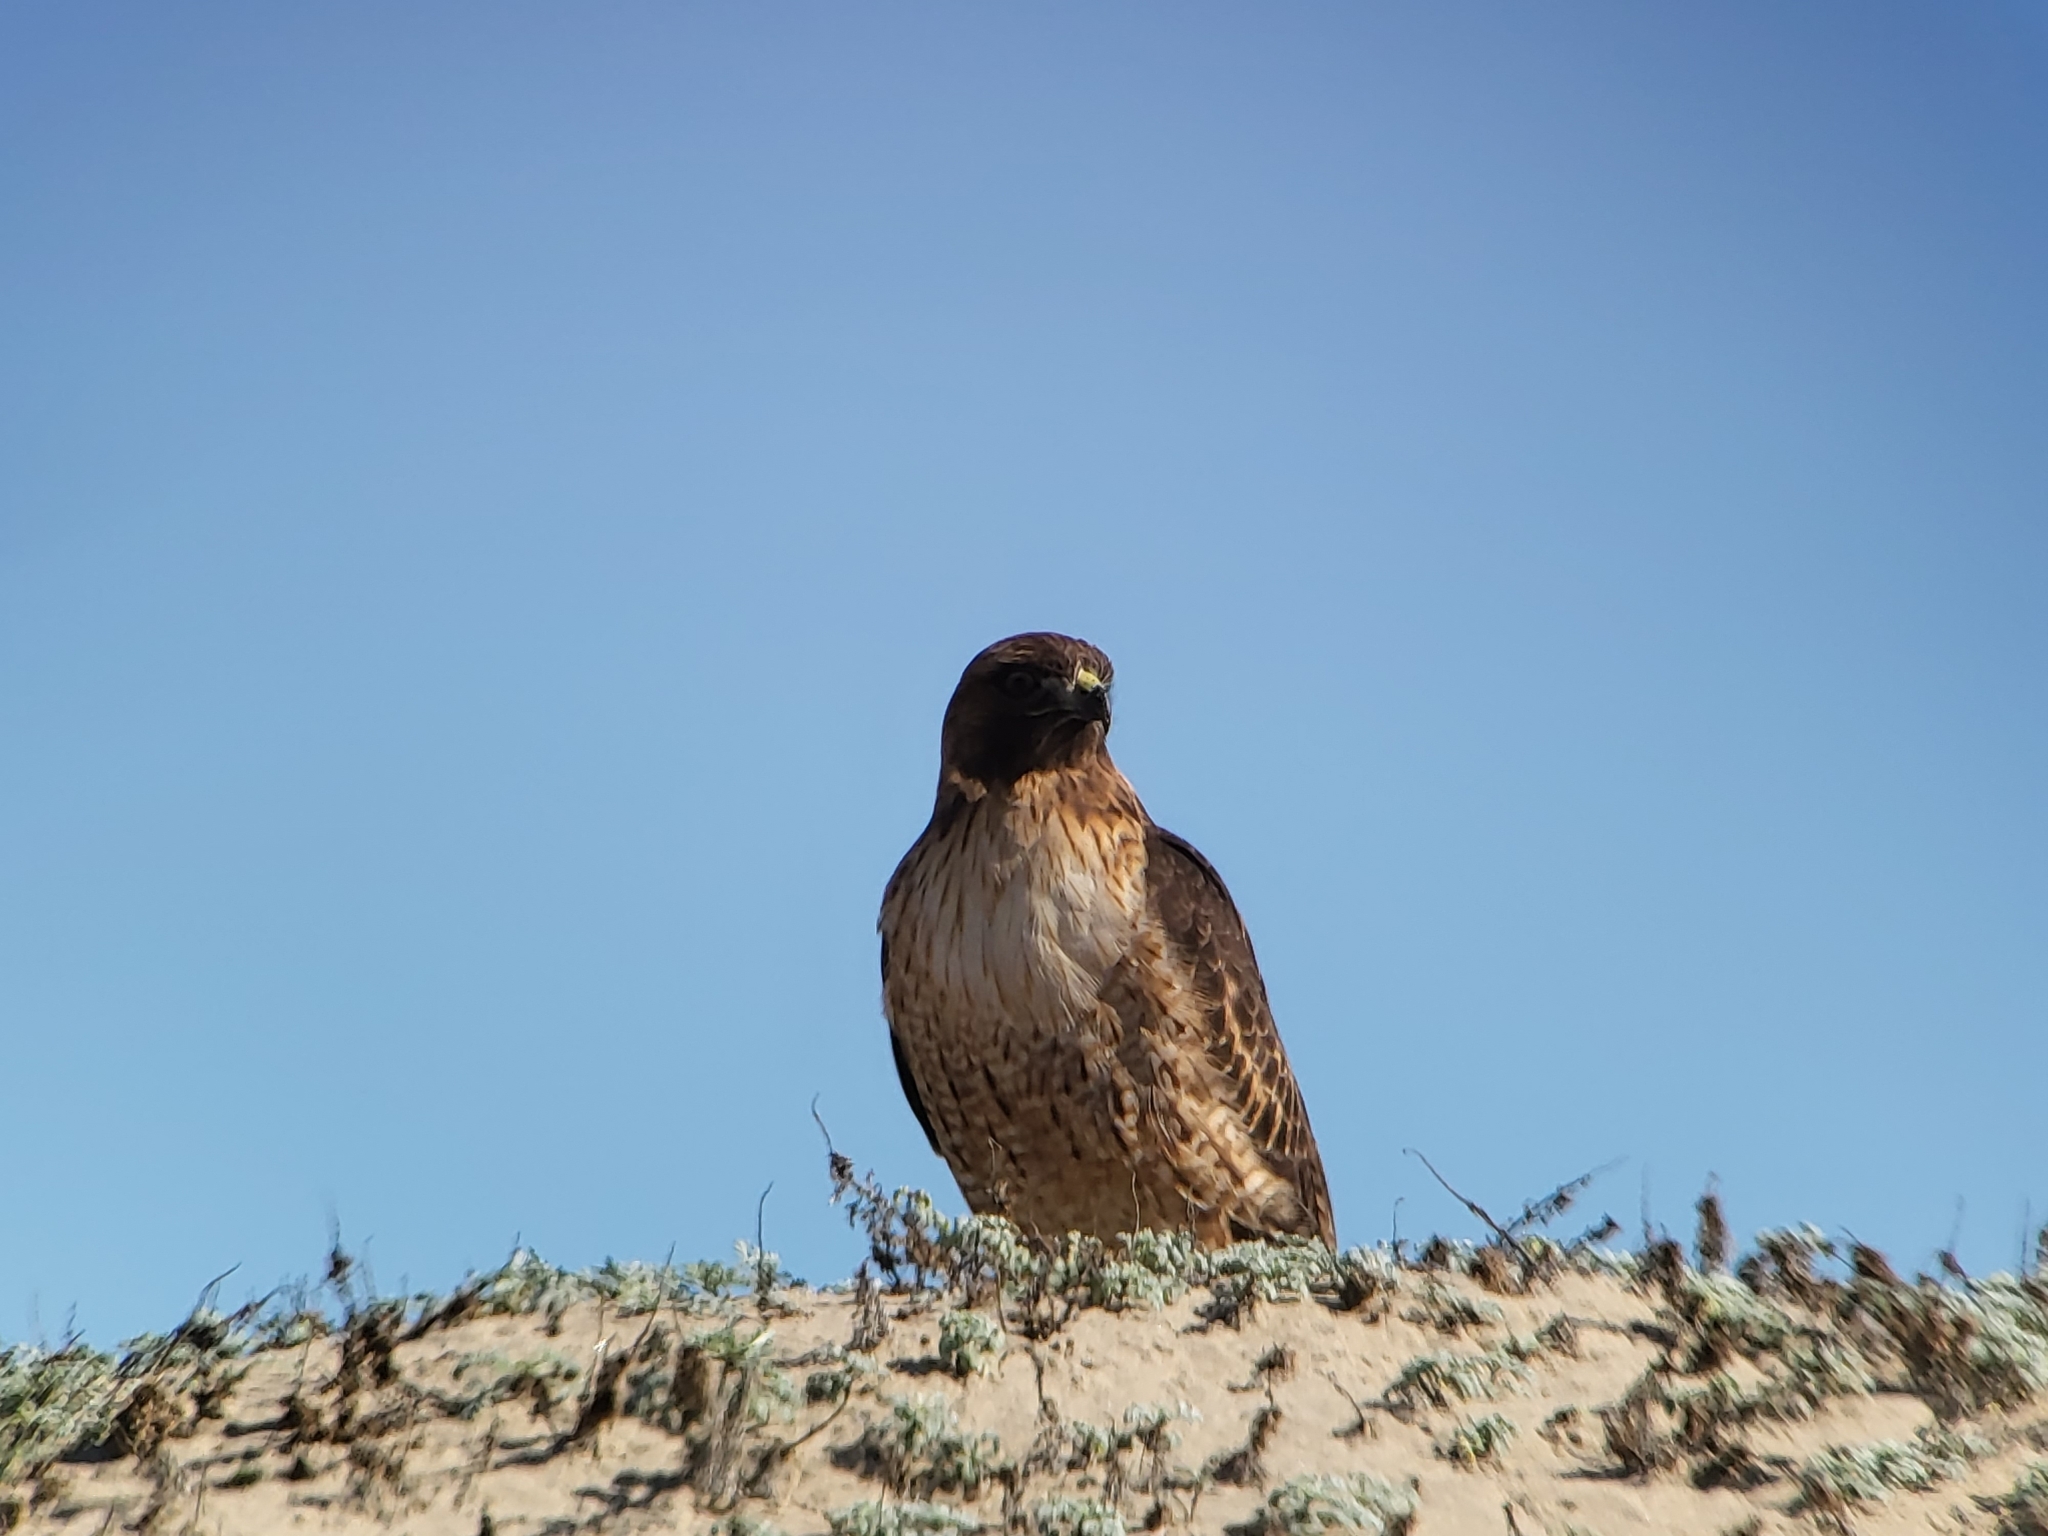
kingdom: Animalia
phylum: Chordata
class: Aves
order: Accipitriformes
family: Accipitridae
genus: Buteo
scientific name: Buteo jamaicensis
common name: Red-tailed hawk
